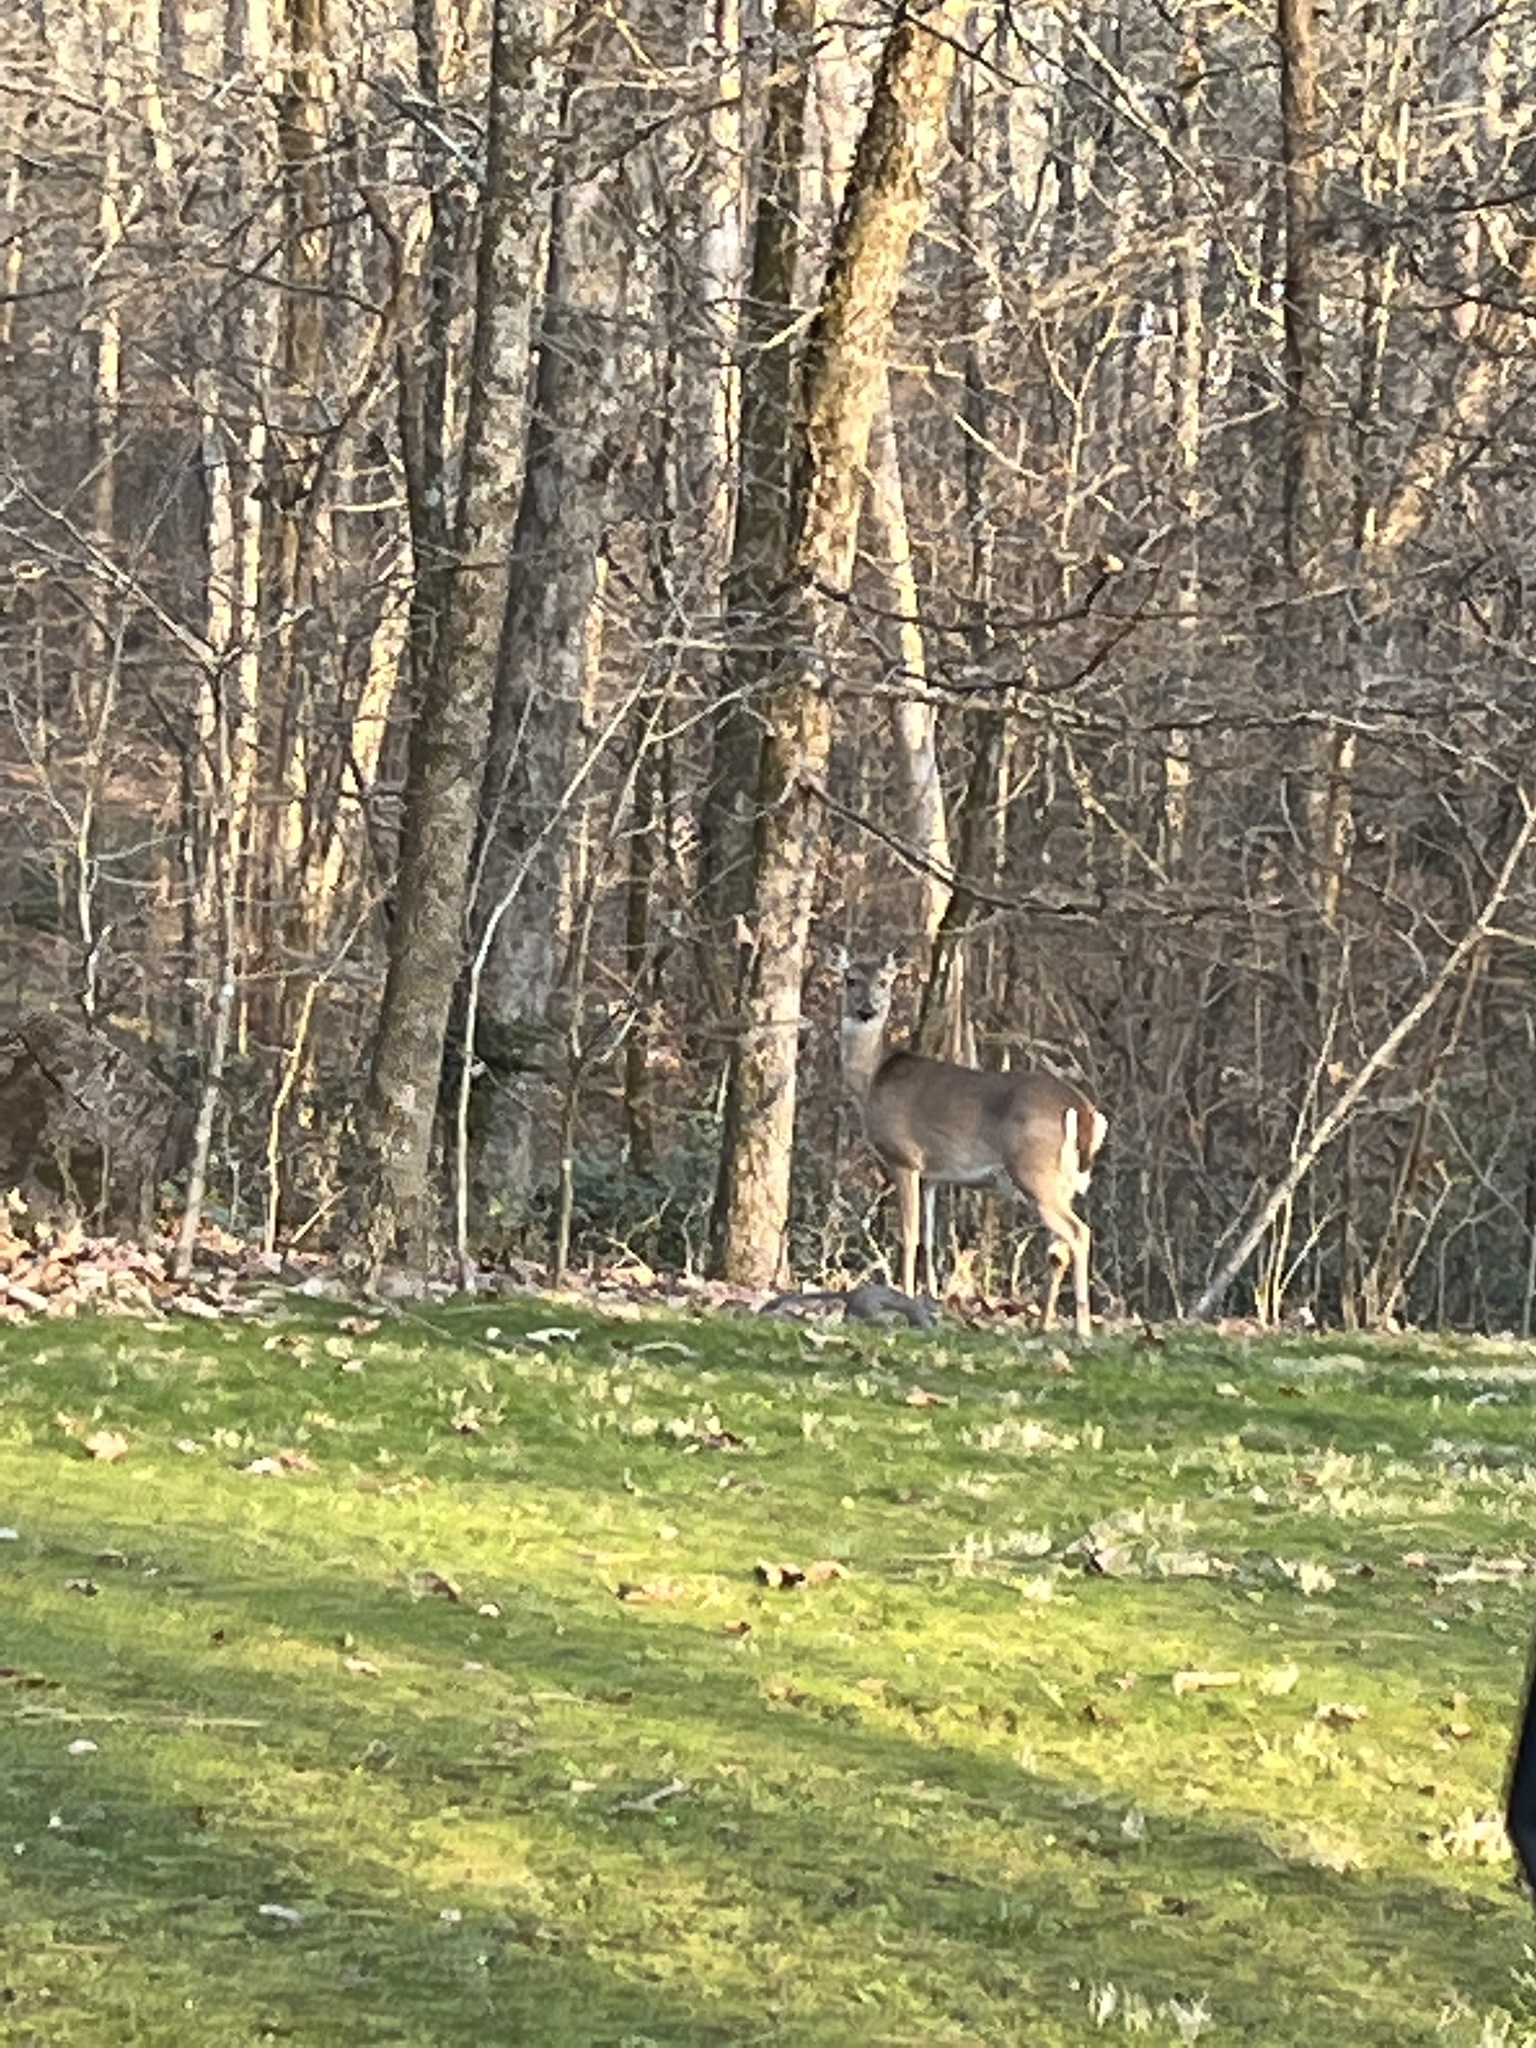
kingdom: Animalia
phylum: Chordata
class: Mammalia
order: Artiodactyla
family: Cervidae
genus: Odocoileus
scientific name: Odocoileus virginianus
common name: White-tailed deer
